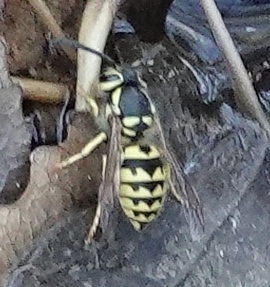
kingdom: Animalia
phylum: Arthropoda
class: Insecta
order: Hymenoptera
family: Vespidae
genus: Vespula
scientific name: Vespula pensylvanica
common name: Western yellowjacket
